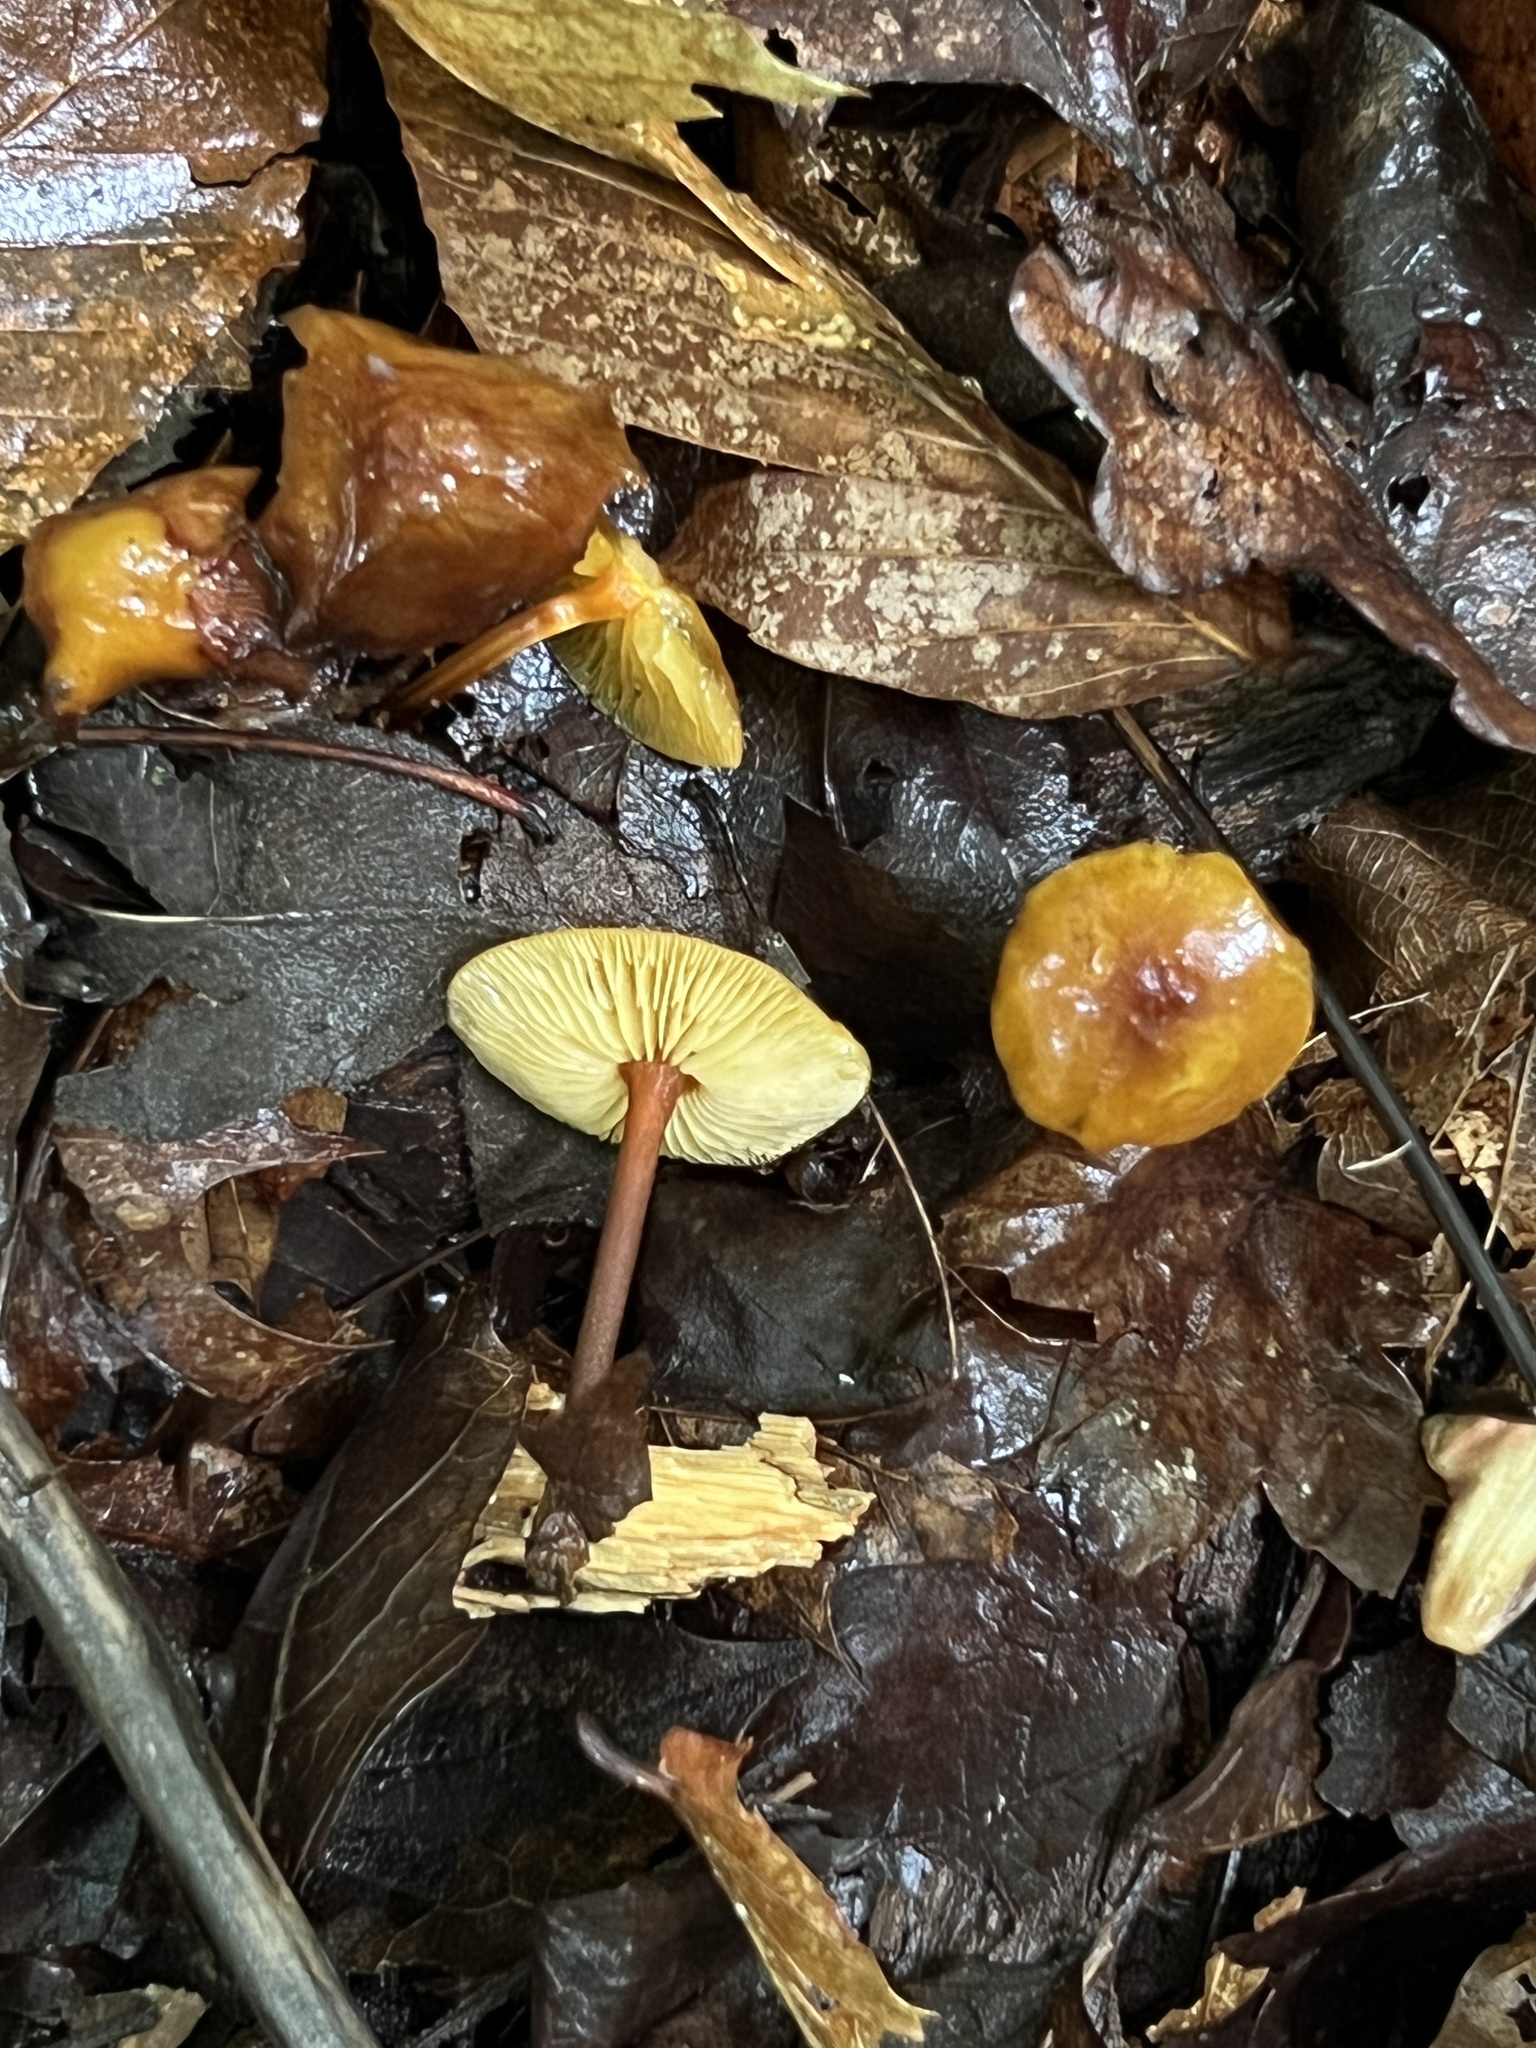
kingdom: Fungi
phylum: Basidiomycota
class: Agaricomycetes
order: Agaricales
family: Mycenaceae
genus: Xeromphalina
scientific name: Xeromphalina tenuipes
